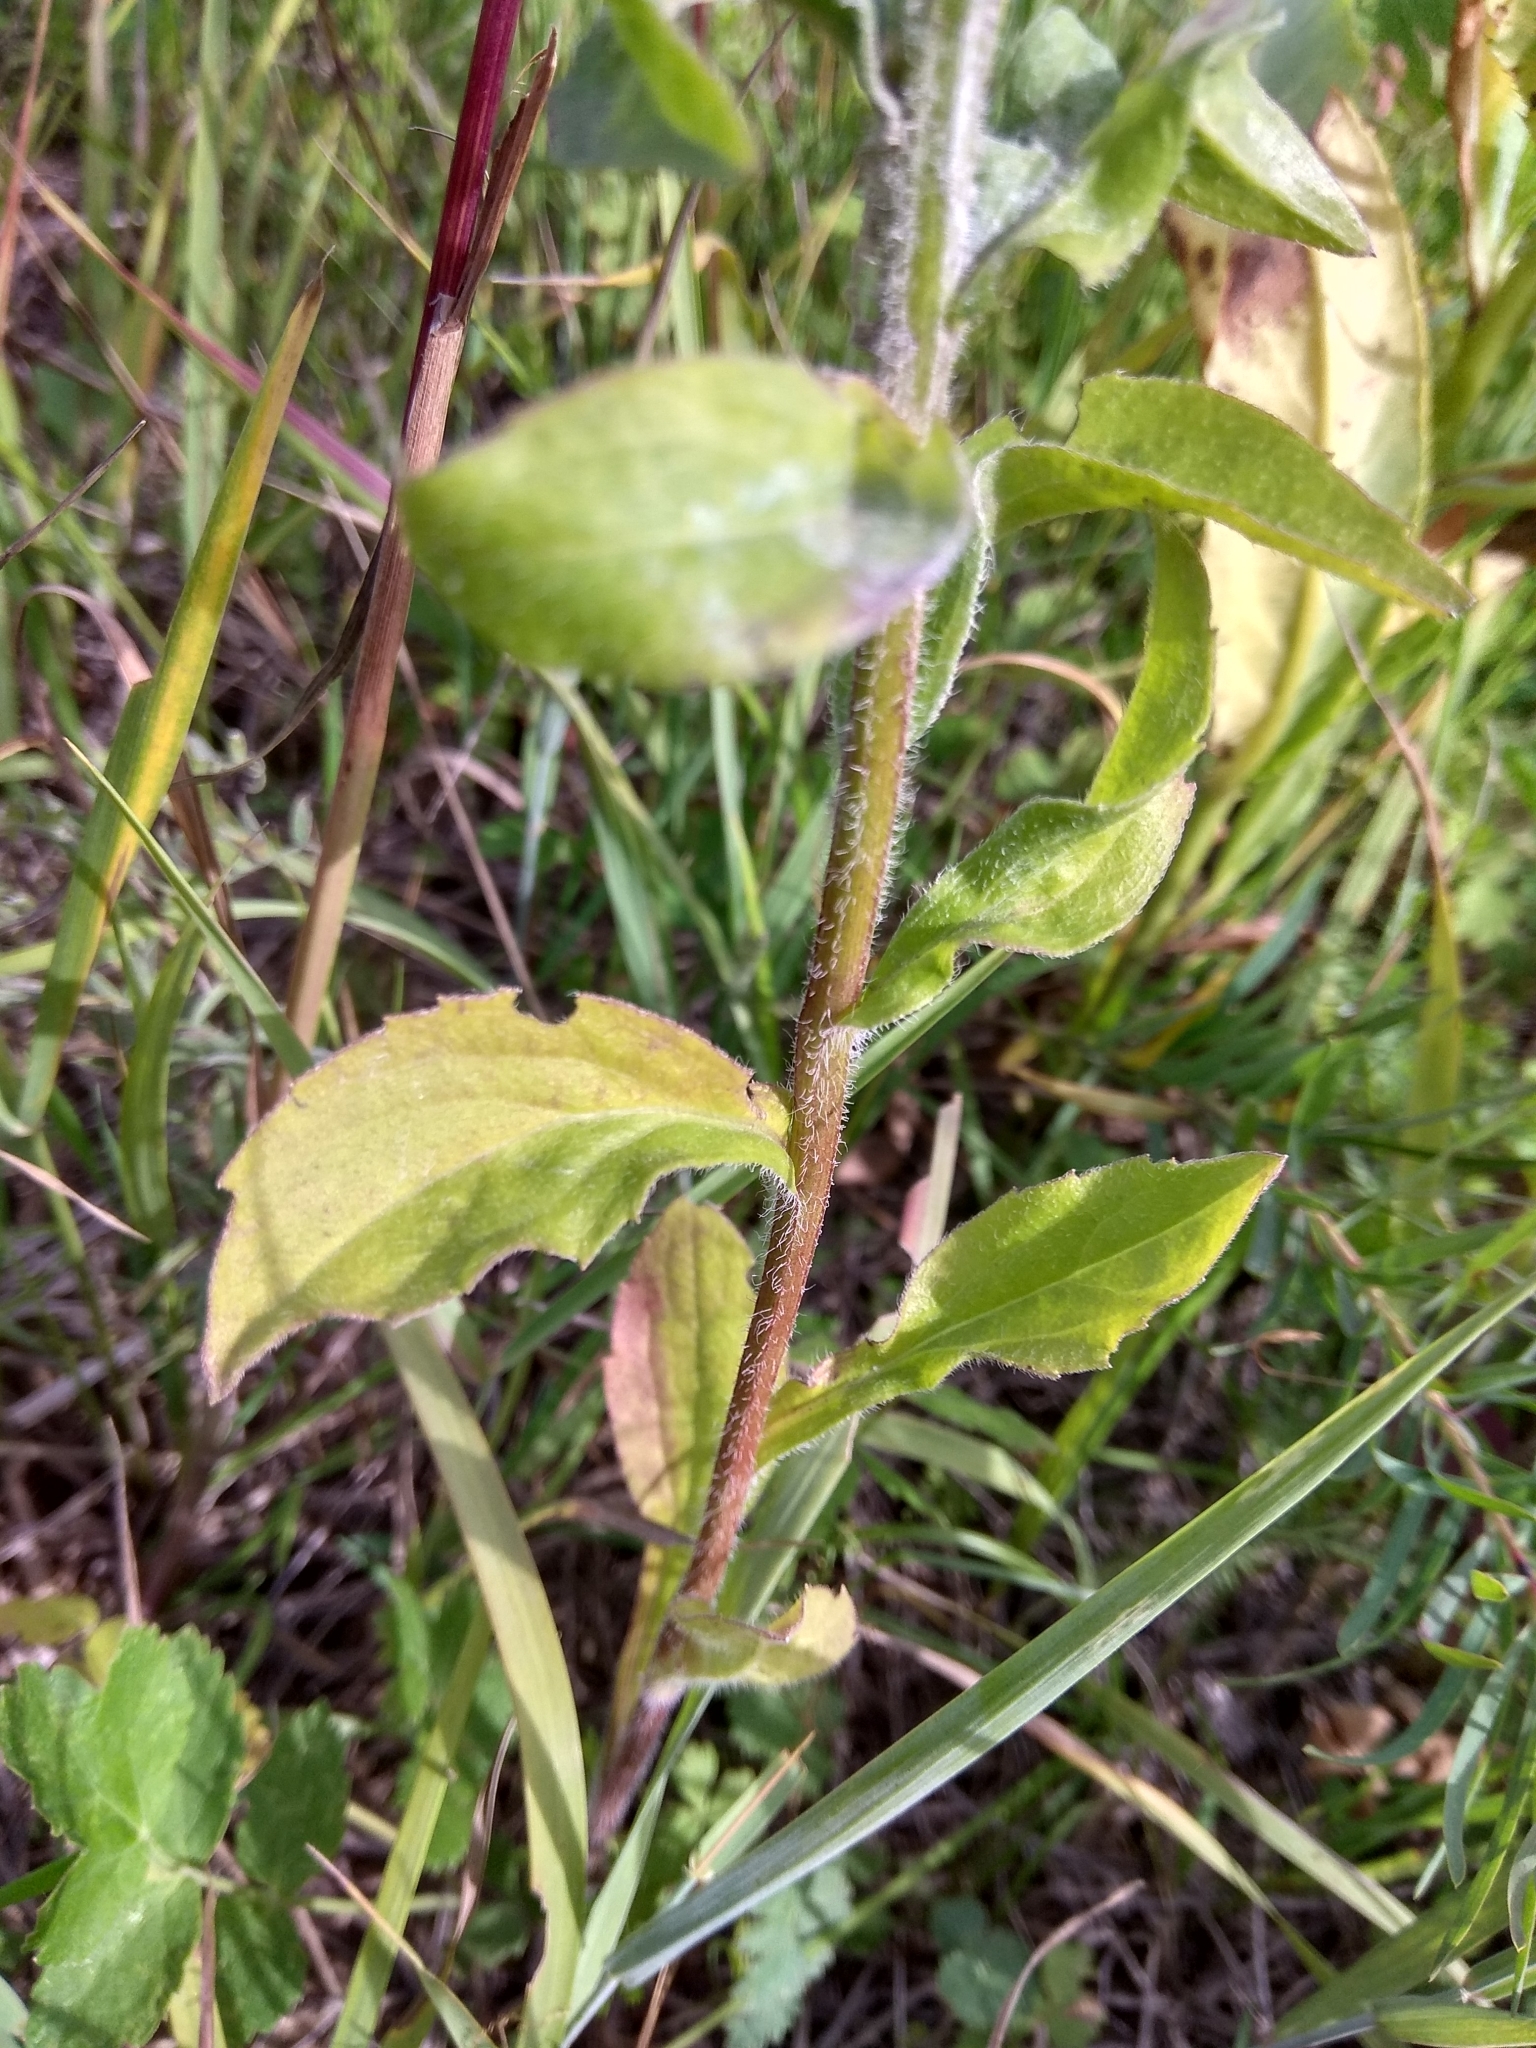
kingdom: Plantae
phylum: Tracheophyta
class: Magnoliopsida
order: Asterales
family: Asteraceae
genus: Erigeron
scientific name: Erigeron annuus
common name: Tall fleabane
